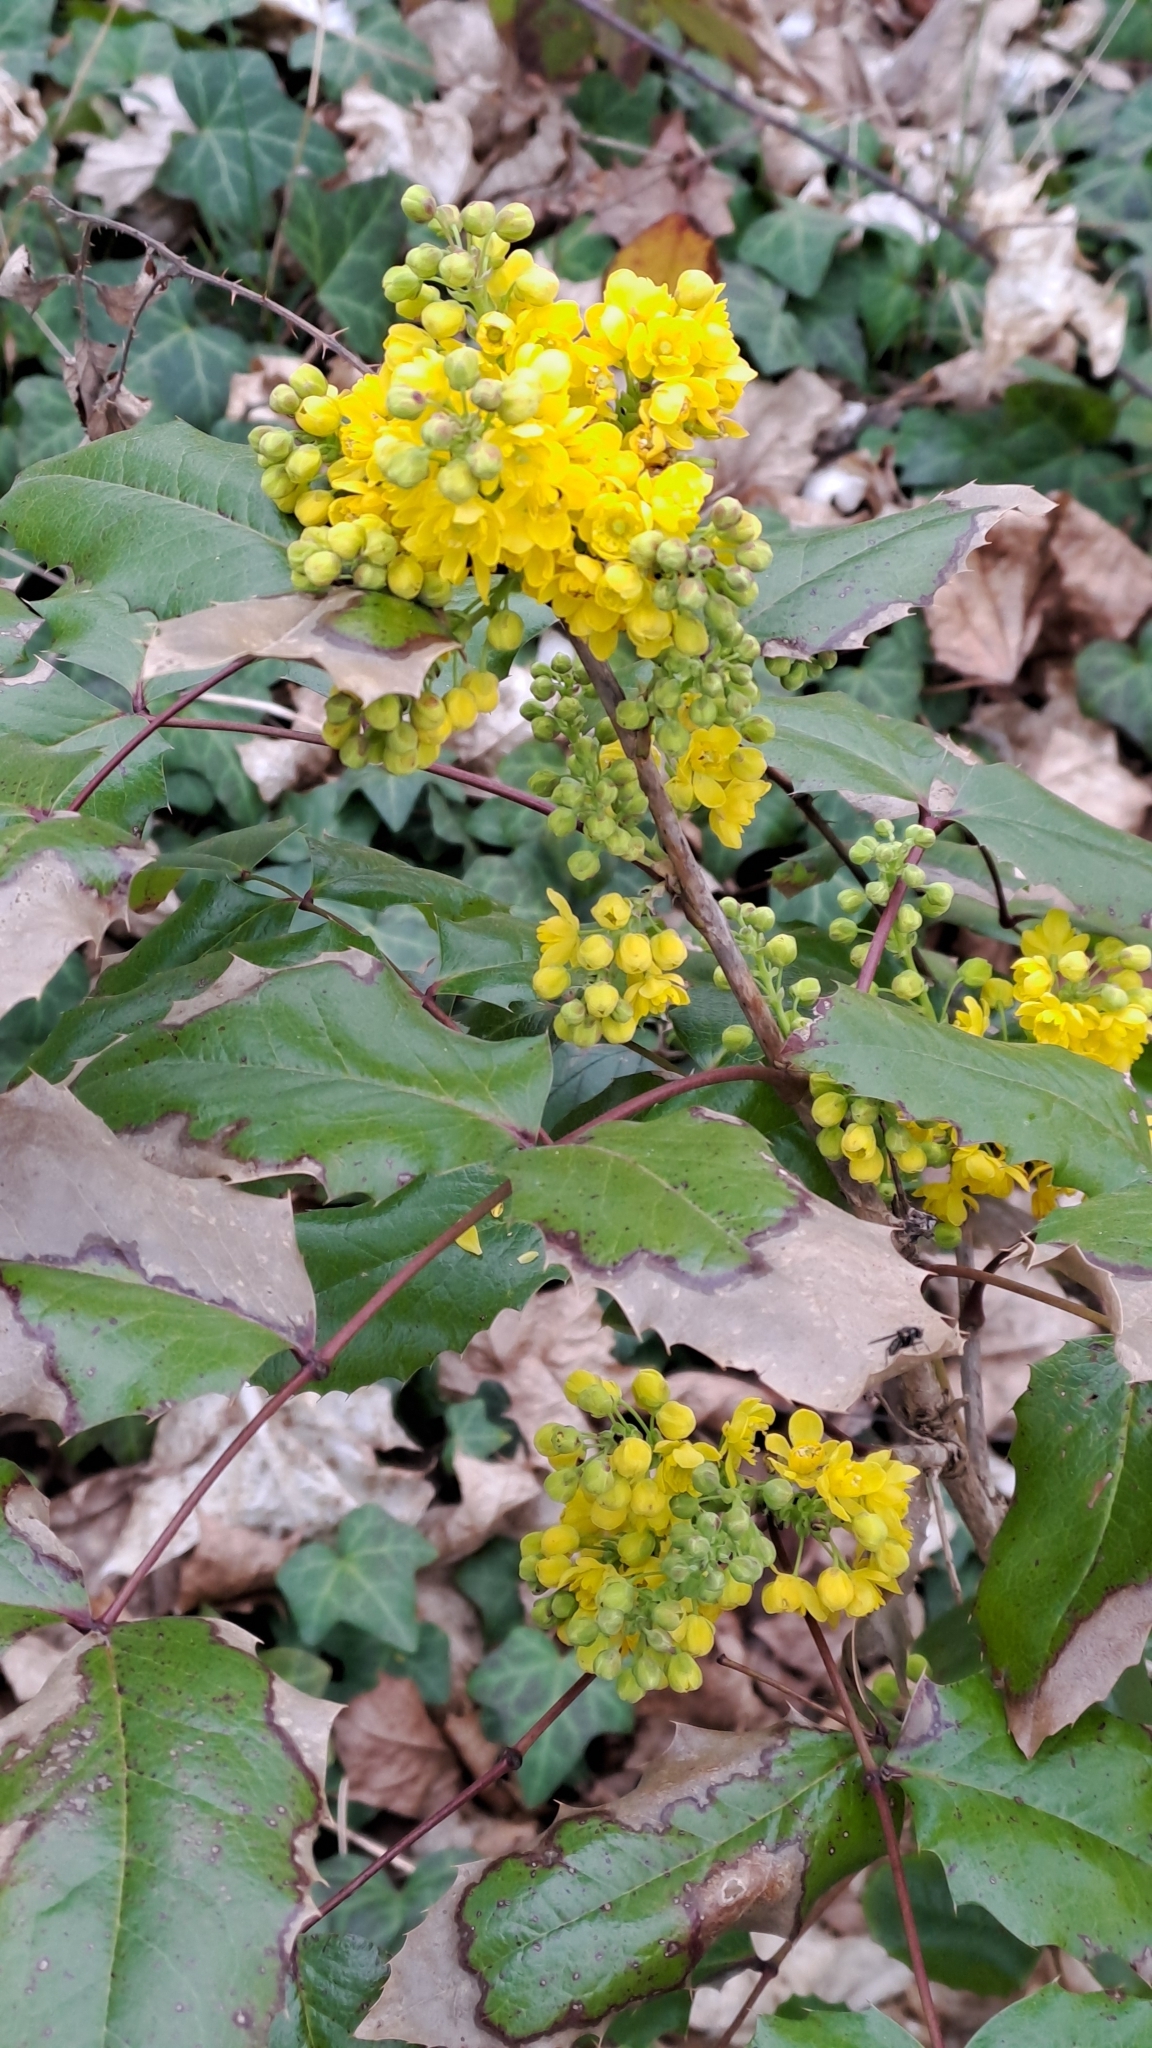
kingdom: Plantae
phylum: Tracheophyta
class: Magnoliopsida
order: Ranunculales
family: Berberidaceae
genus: Mahonia
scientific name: Mahonia aquifolium
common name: Oregon-grape
